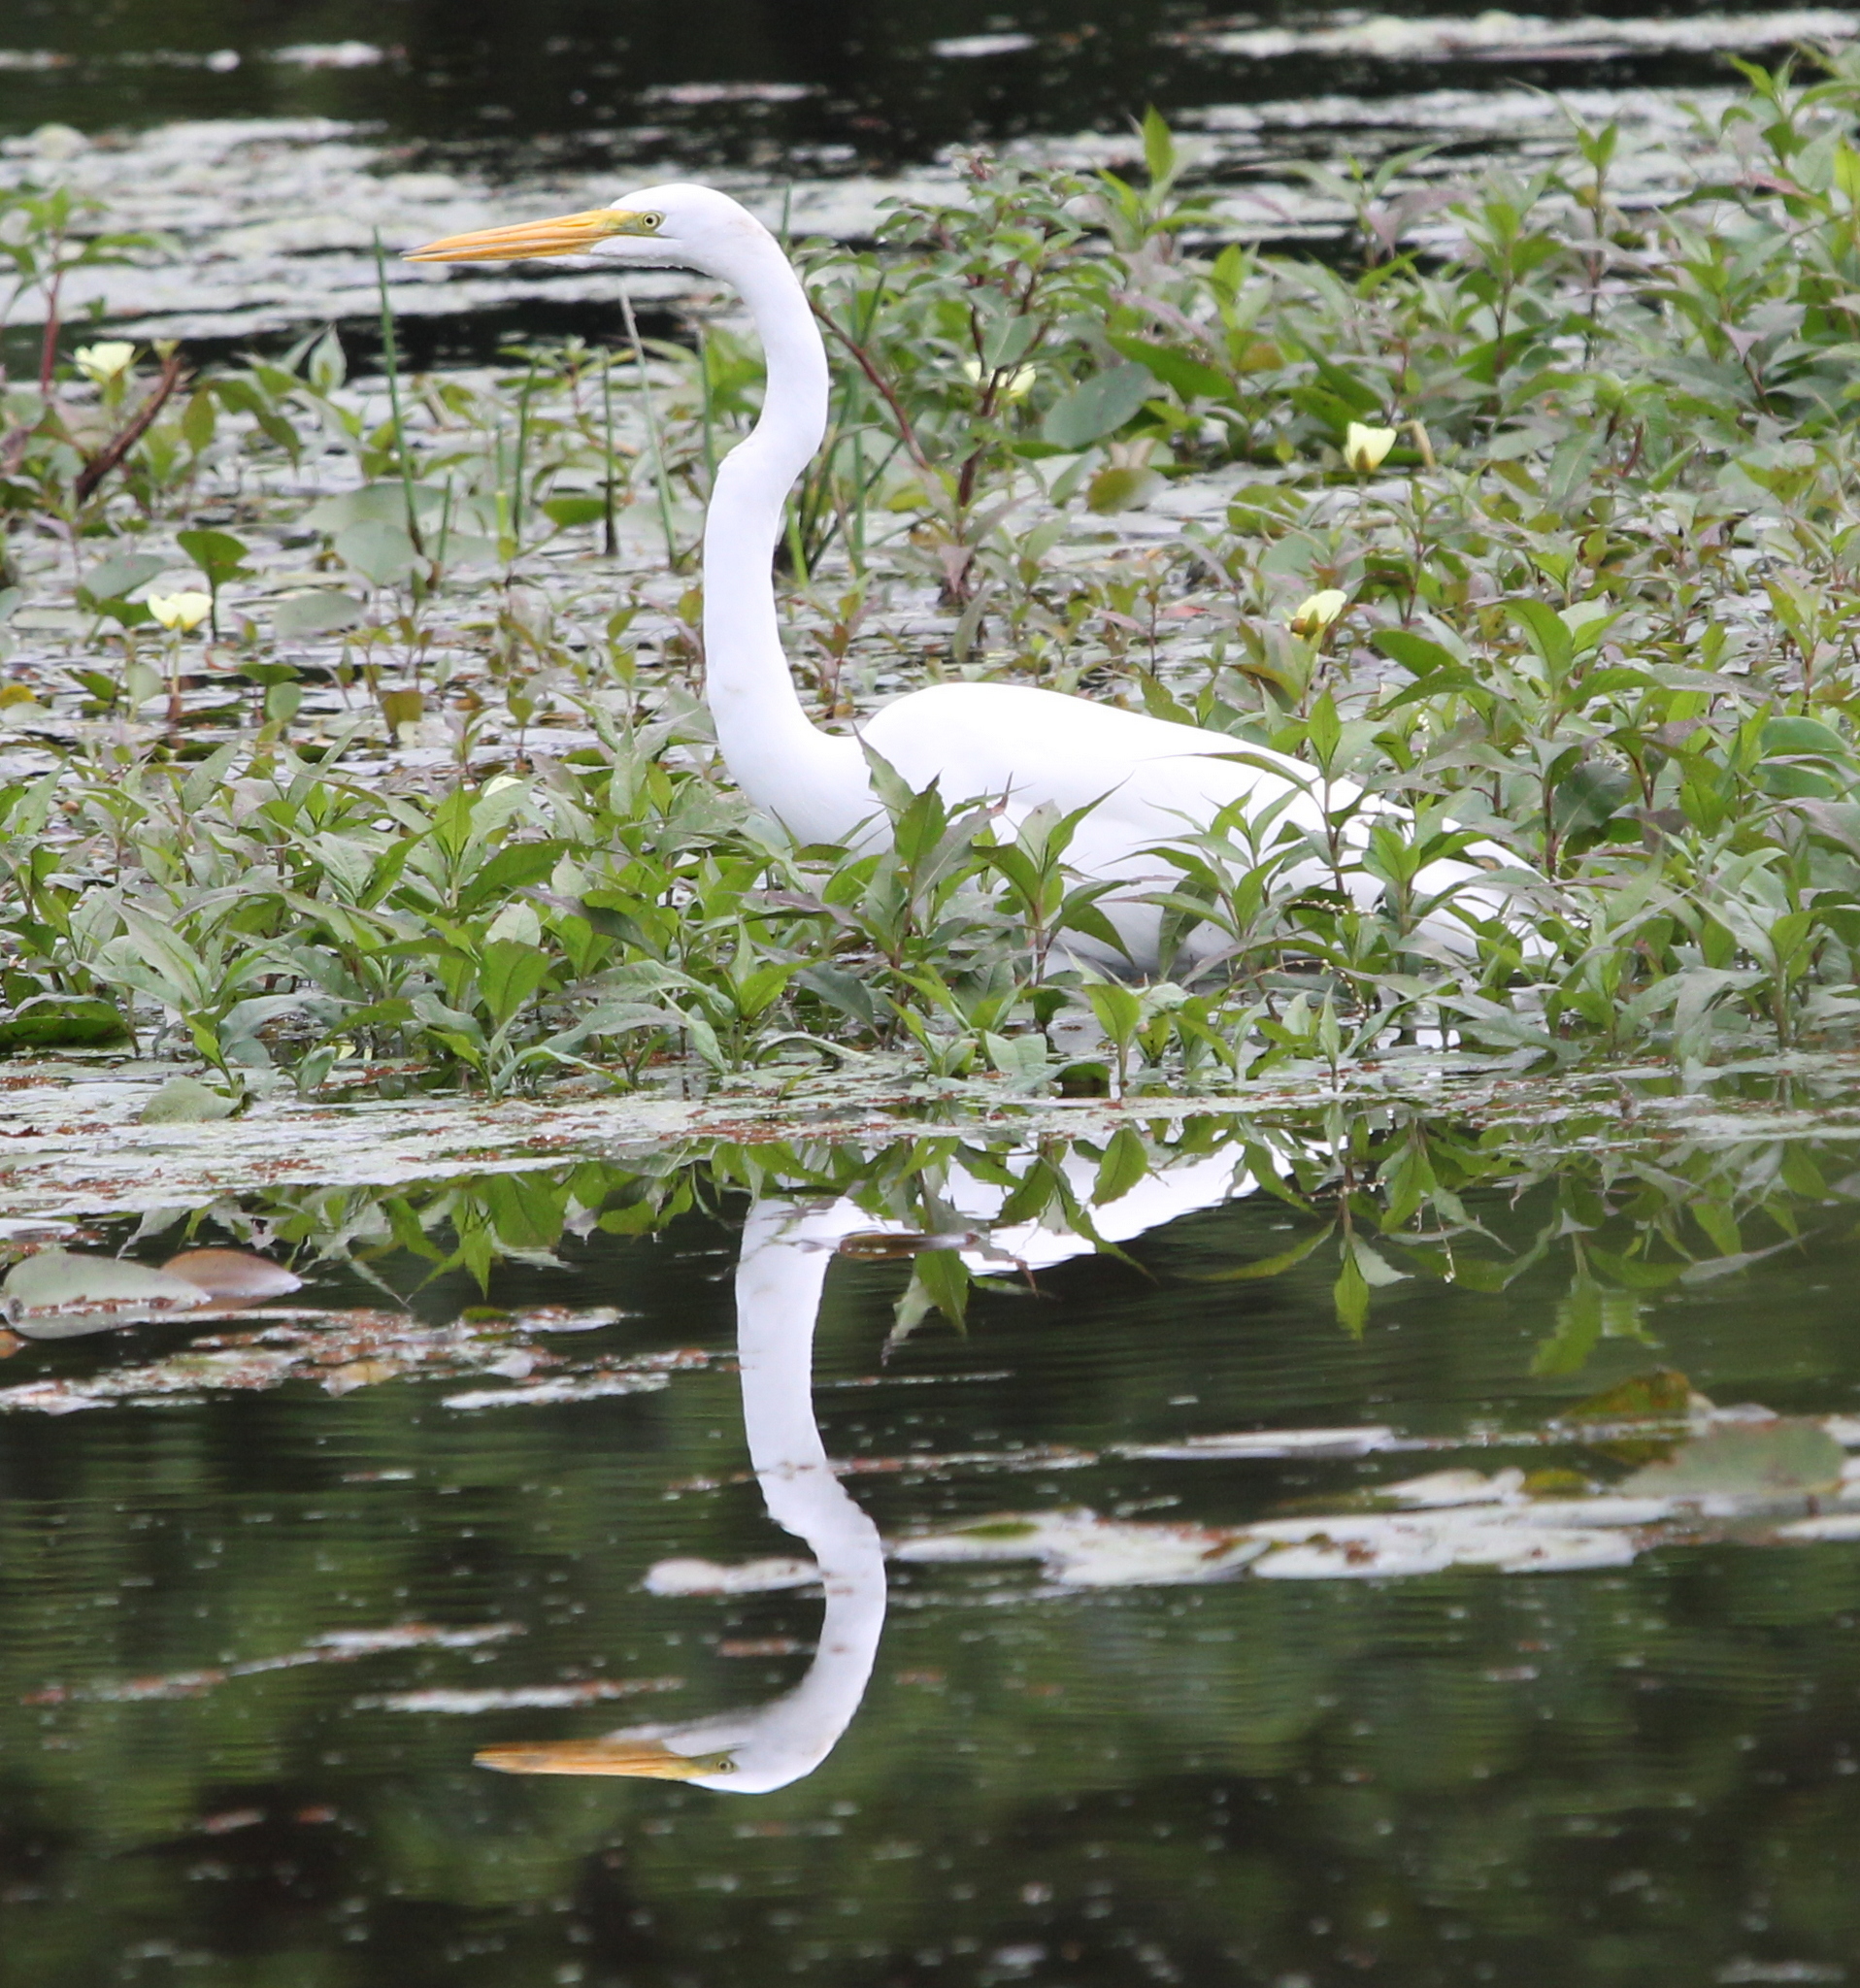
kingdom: Animalia
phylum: Chordata
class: Aves
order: Pelecaniformes
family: Ardeidae
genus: Ardea
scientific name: Ardea alba
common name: Great egret
